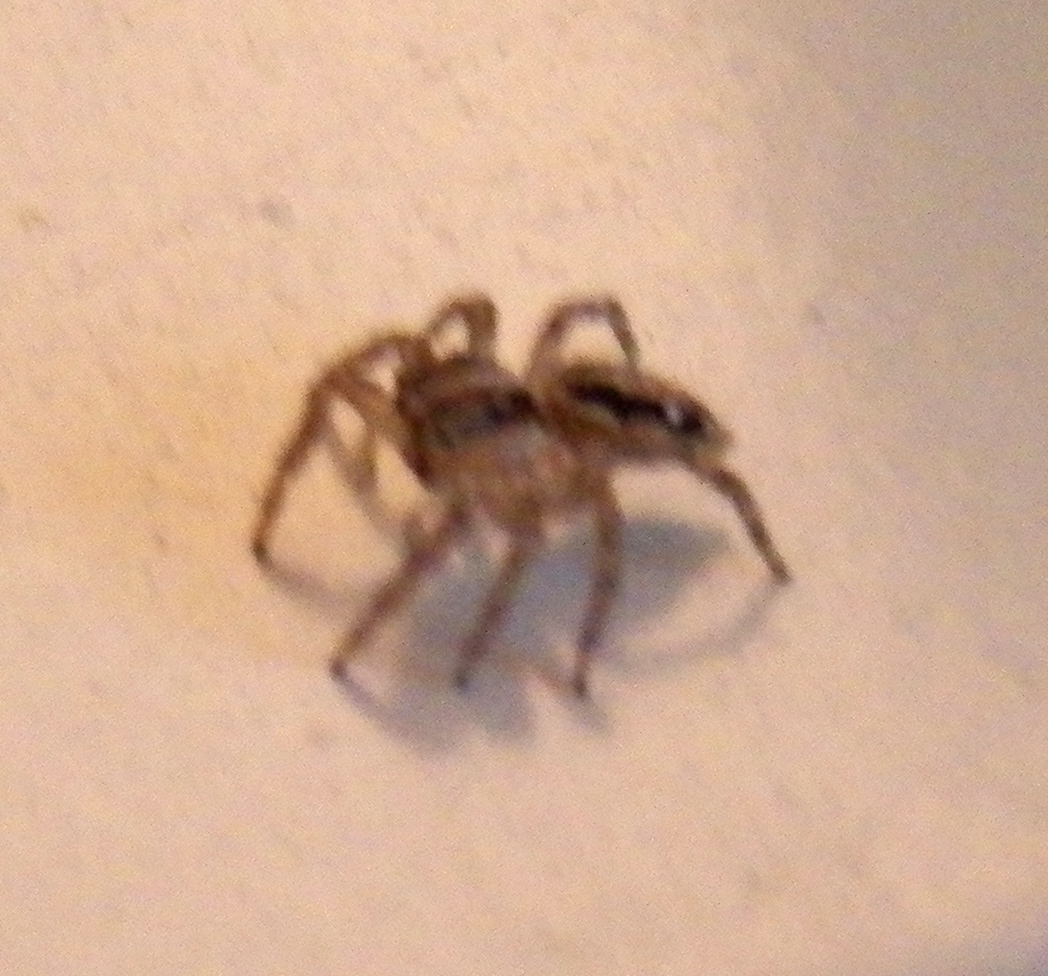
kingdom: Animalia
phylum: Arthropoda
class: Arachnida
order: Araneae
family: Salticidae
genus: Plexippus
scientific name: Plexippus paykulli
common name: Pantropical jumper
